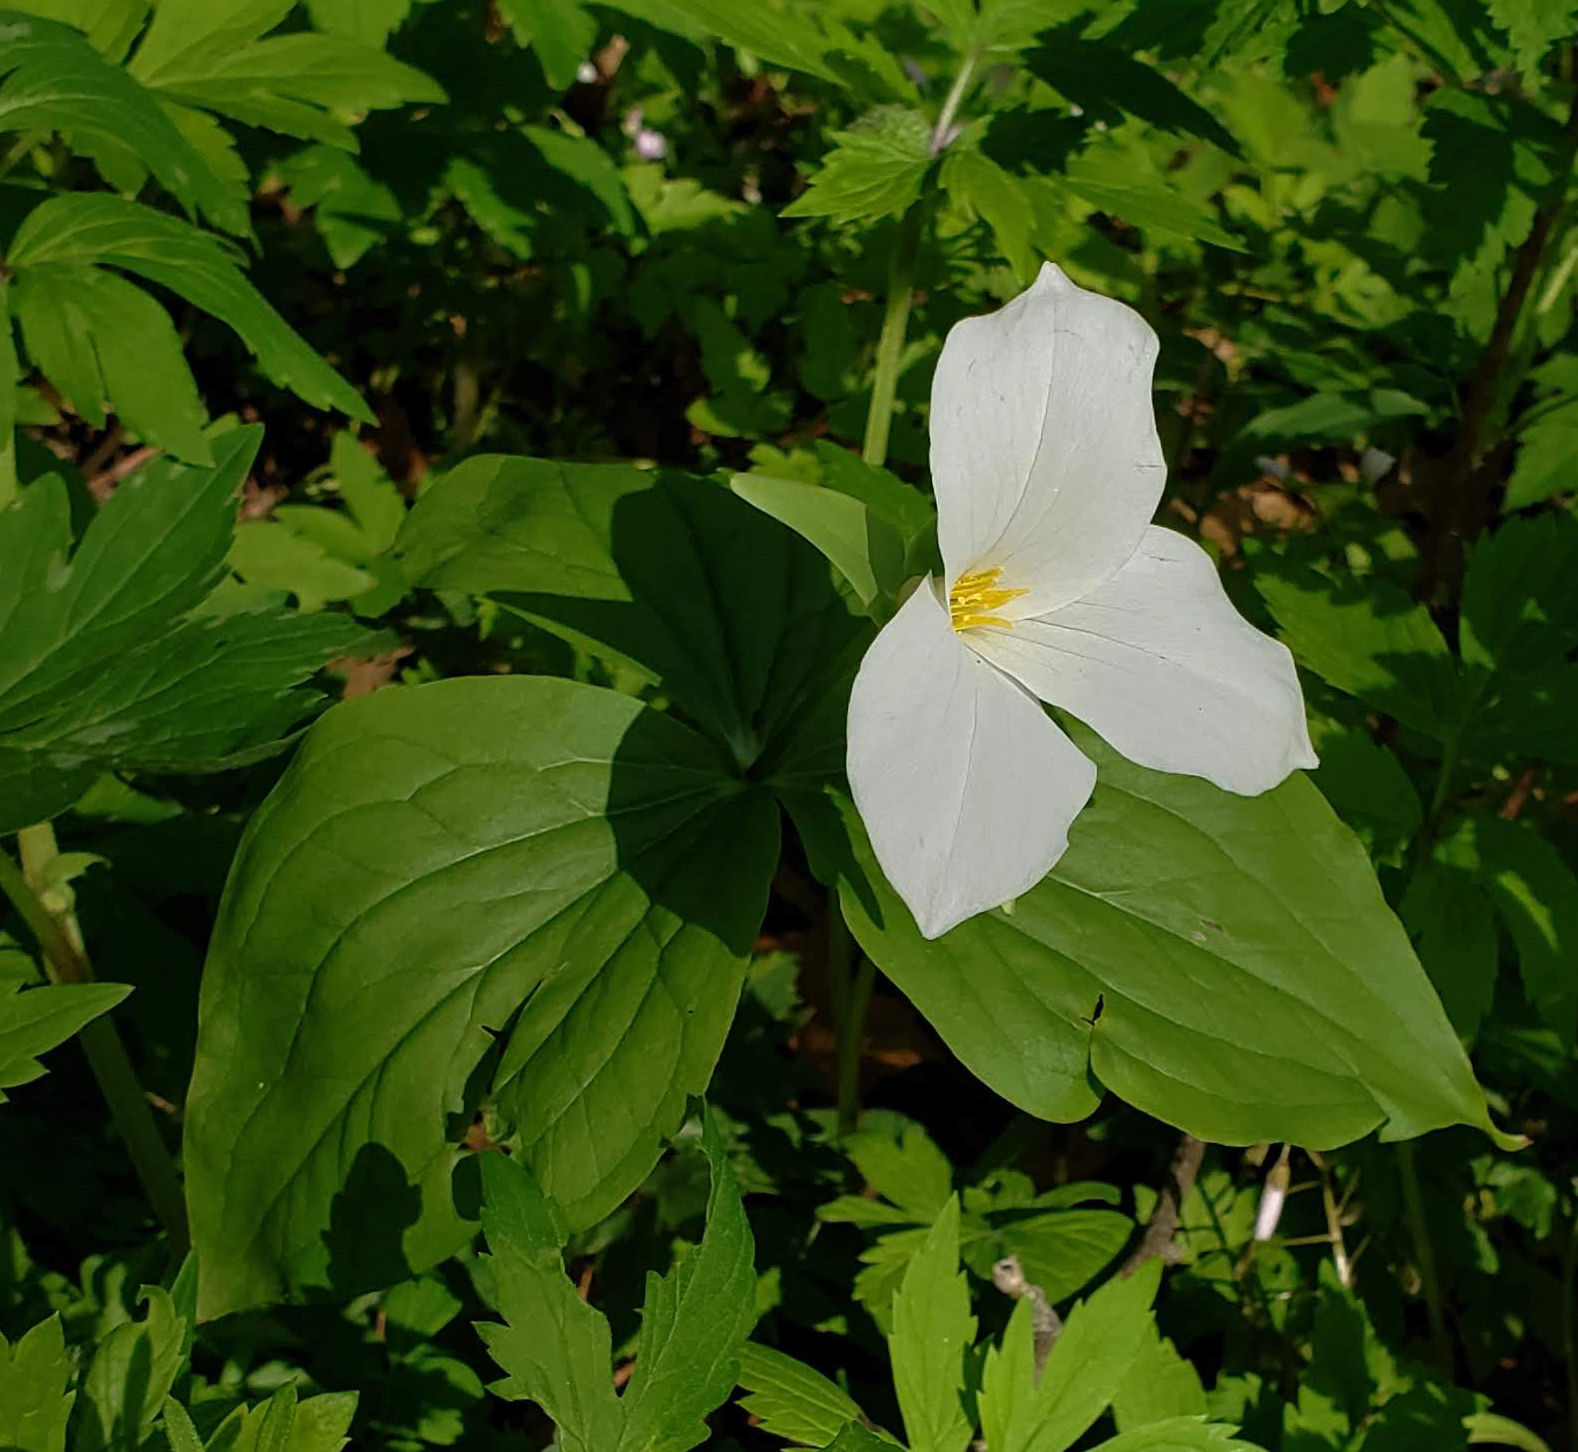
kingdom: Plantae
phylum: Tracheophyta
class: Liliopsida
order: Liliales
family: Melanthiaceae
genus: Trillium
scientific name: Trillium grandiflorum
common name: Great white trillium
